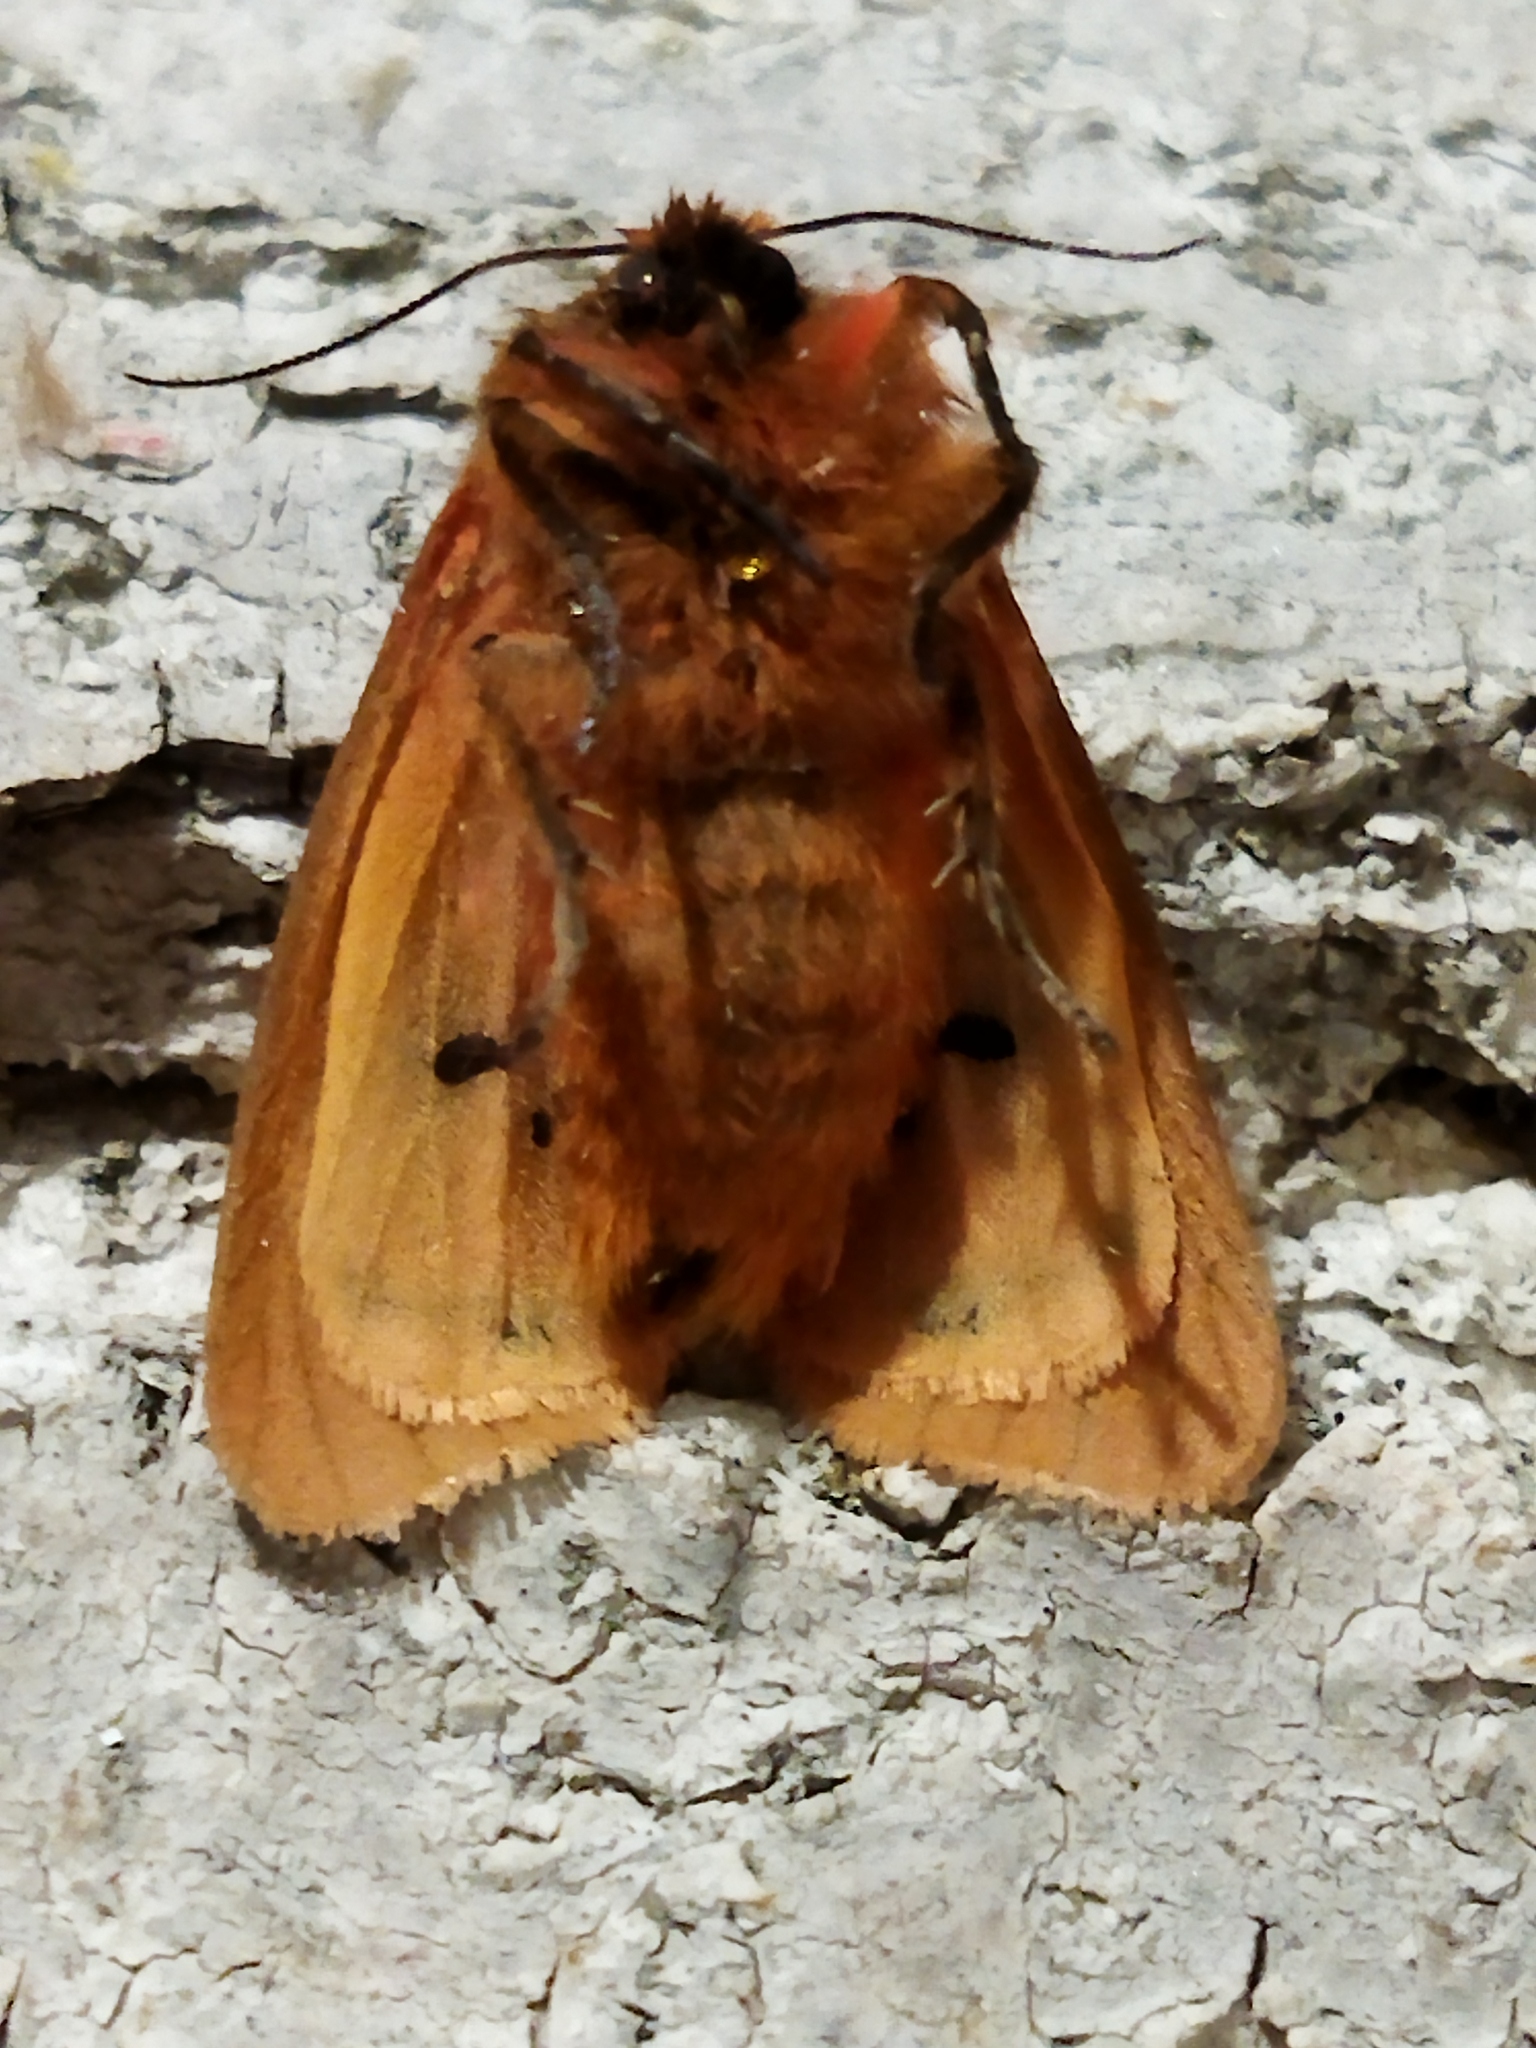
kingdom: Animalia
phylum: Arthropoda
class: Insecta
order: Lepidoptera
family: Erebidae
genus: Phragmatobia
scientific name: Phragmatobia fuliginosa
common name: Ruby tiger
